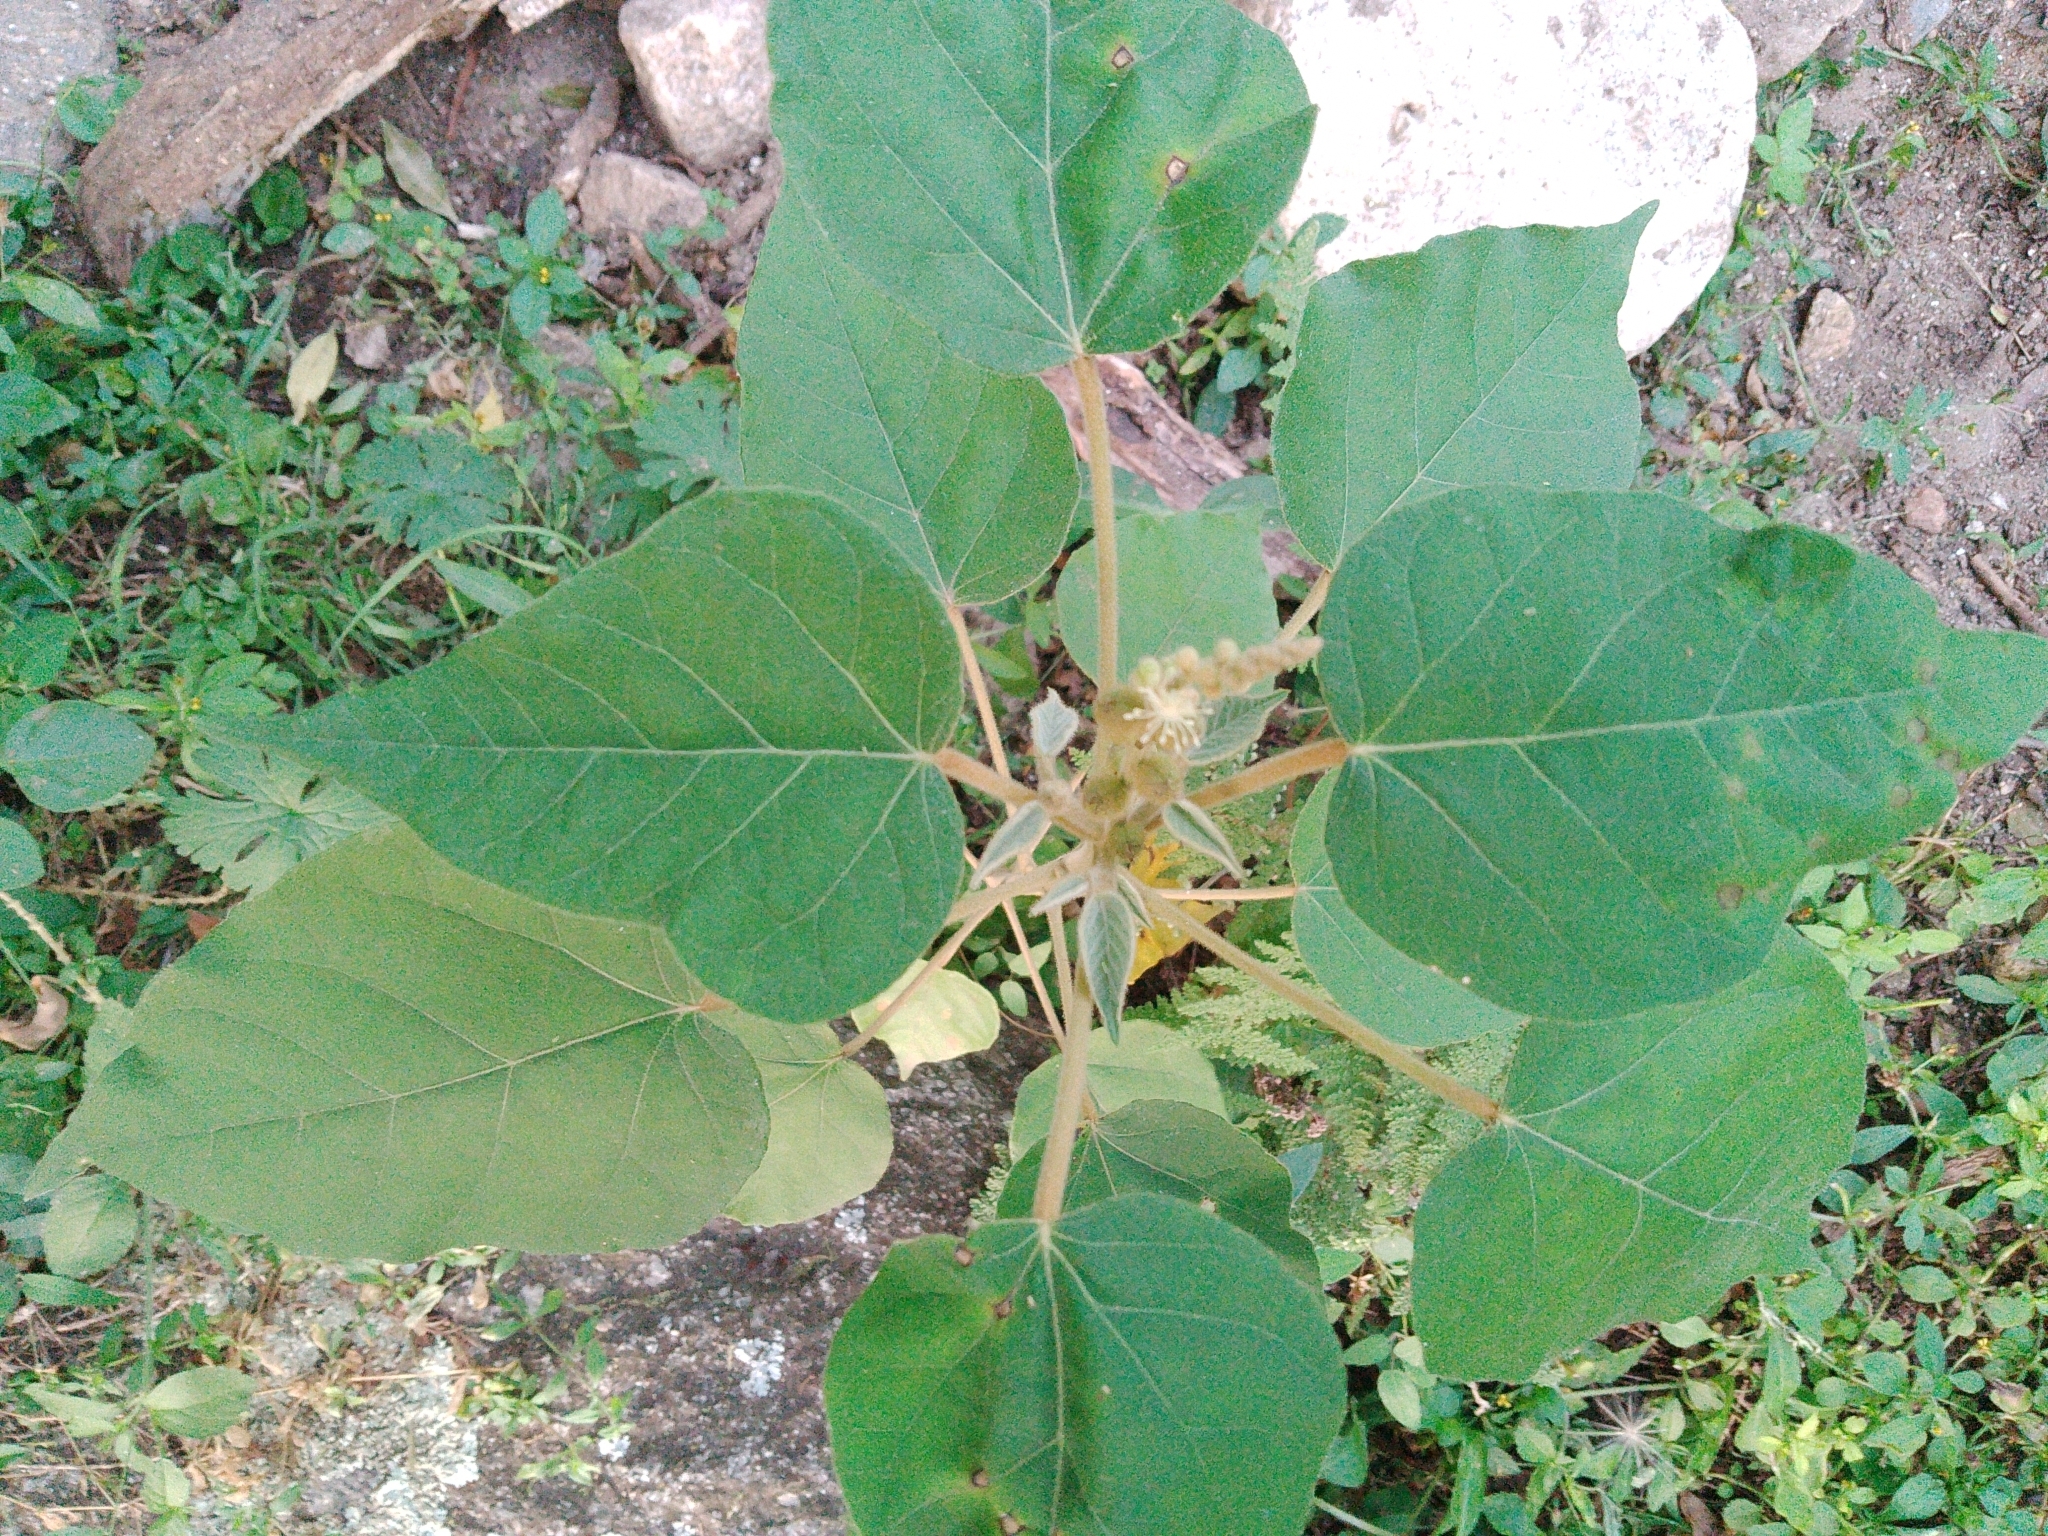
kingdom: Plantae
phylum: Tracheophyta
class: Magnoliopsida
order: Malpighiales
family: Euphorbiaceae
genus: Croton
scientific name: Croton lachnostachyus
